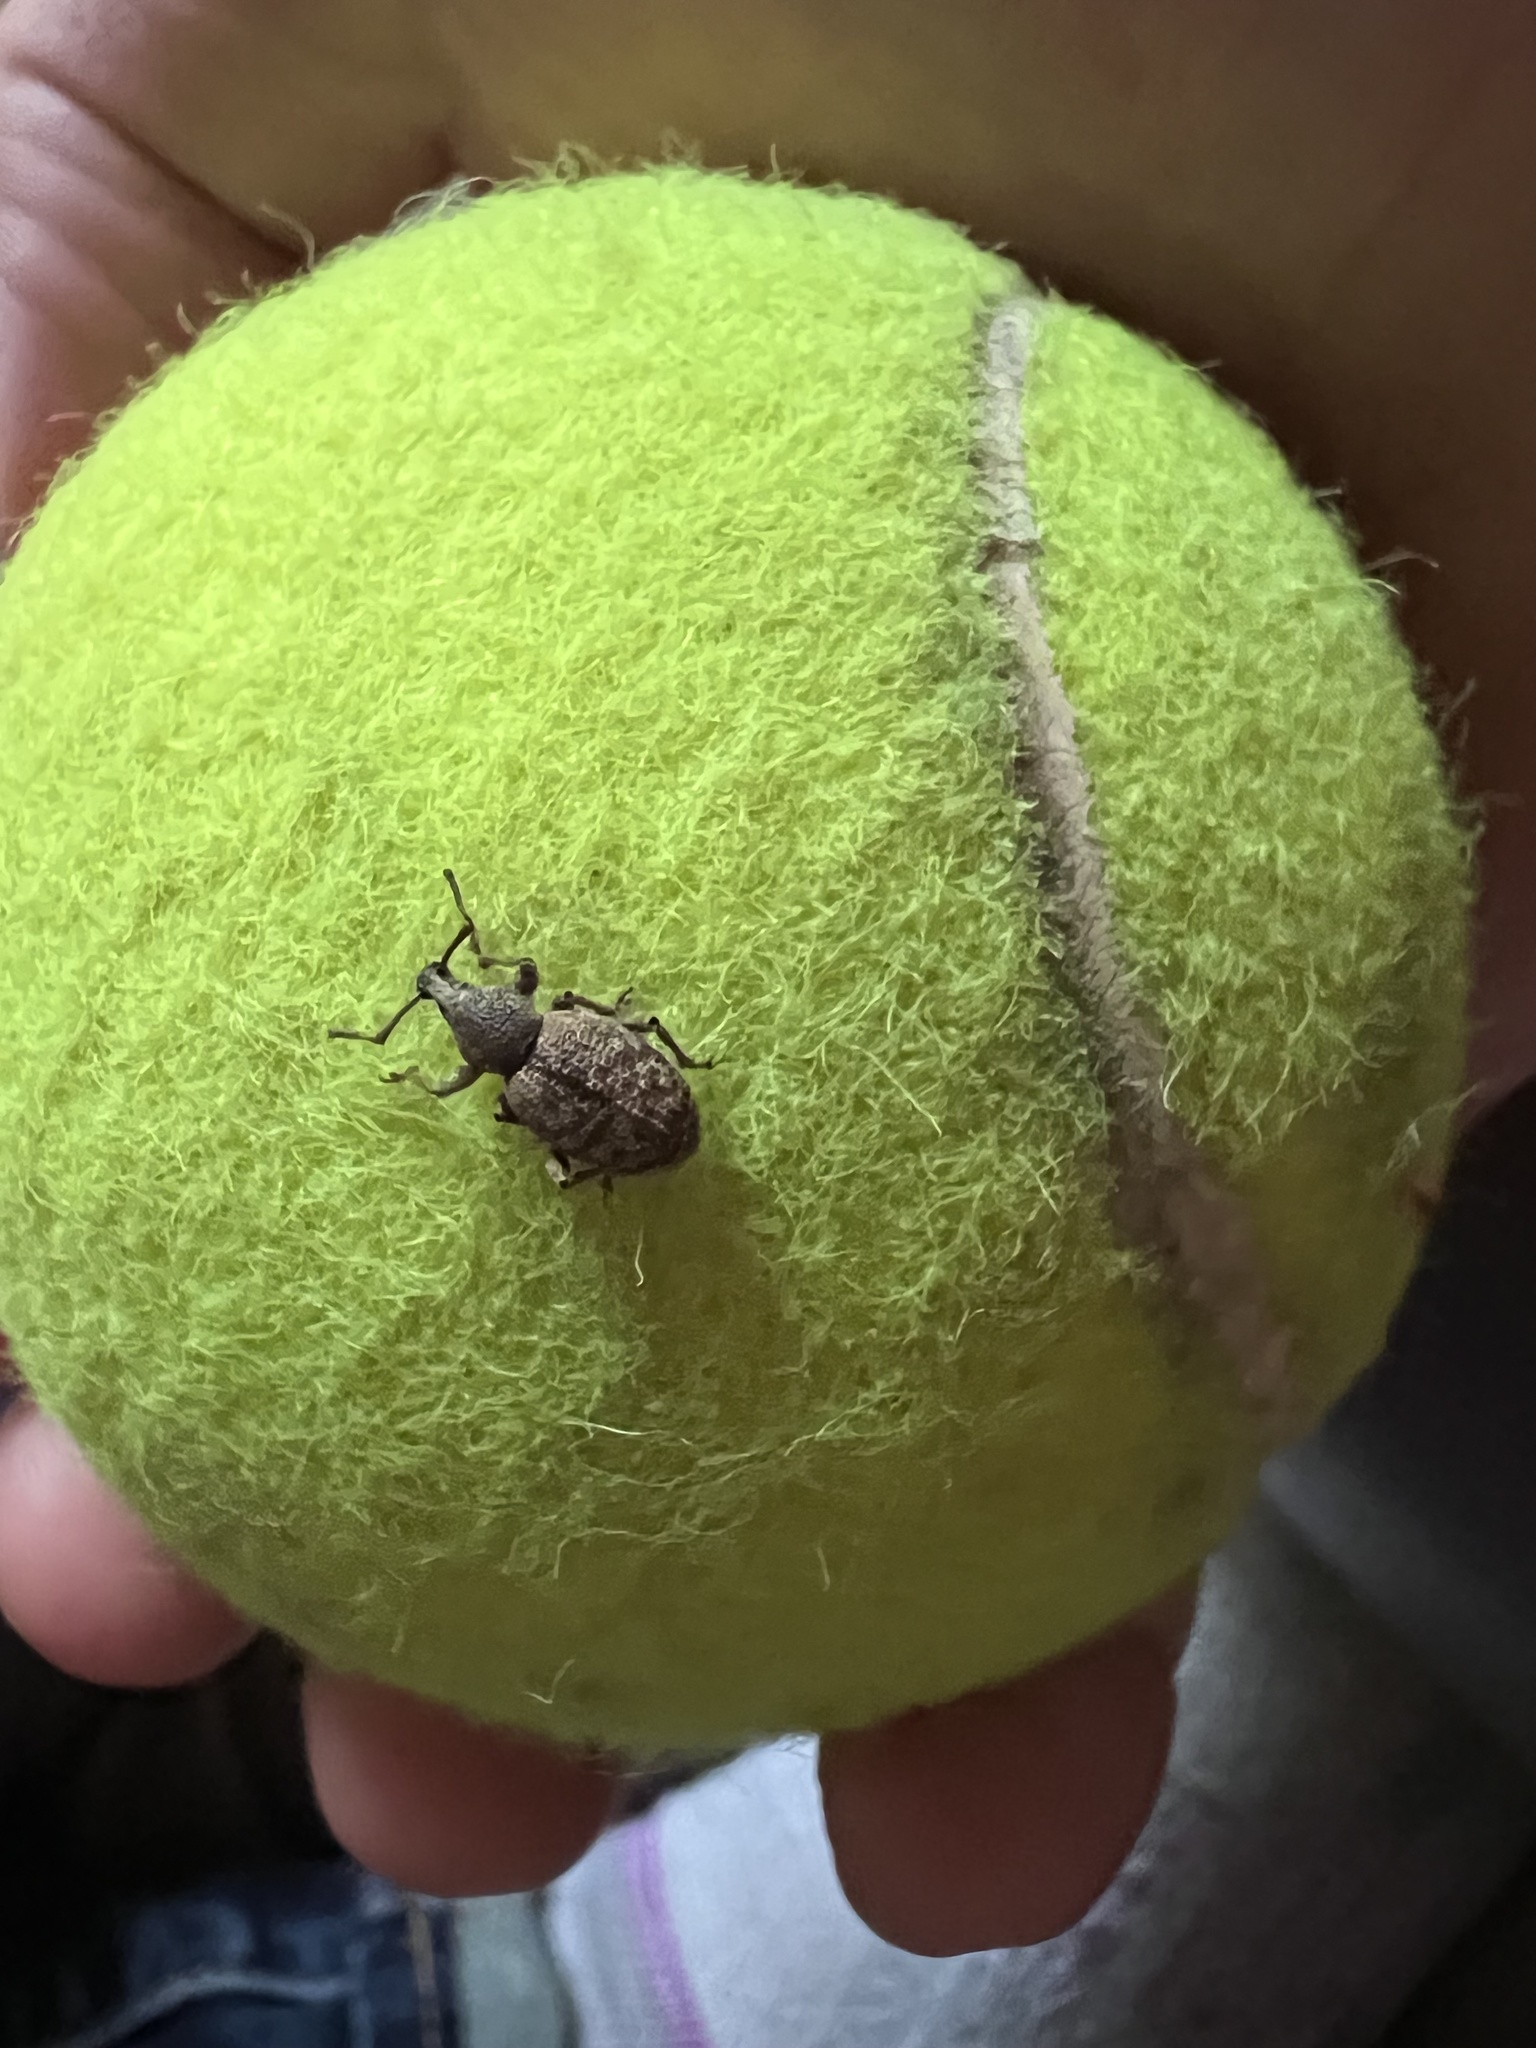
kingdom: Animalia
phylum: Arthropoda
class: Insecta
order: Coleoptera
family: Curculionidae
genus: Otiorhynchus
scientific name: Otiorhynchus singularis
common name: Clay-coloured weevil
